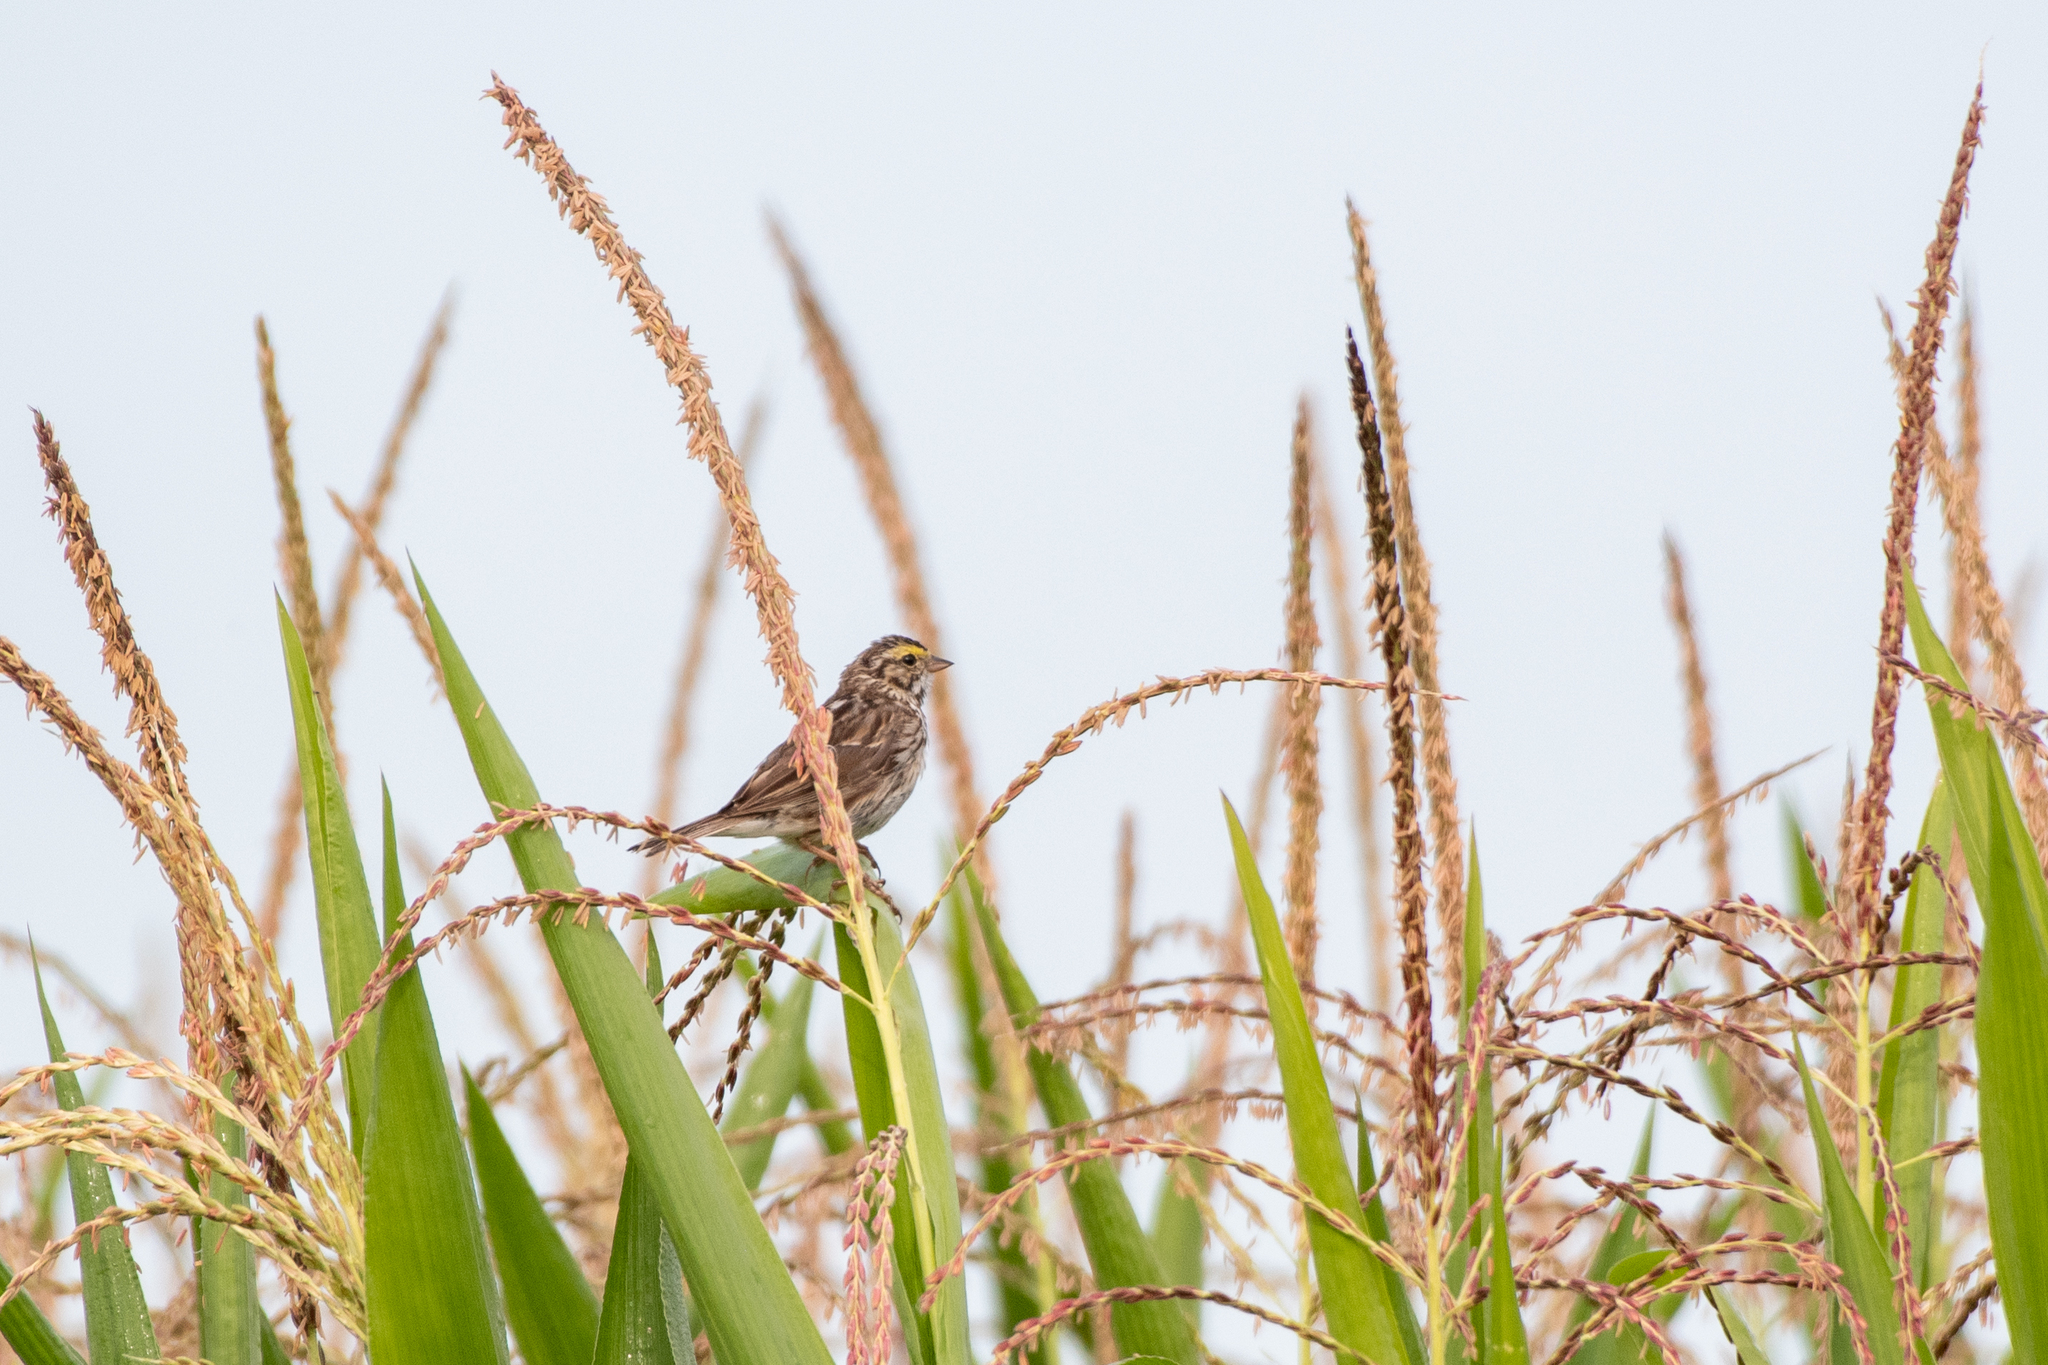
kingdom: Animalia
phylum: Chordata
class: Aves
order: Passeriformes
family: Passerellidae
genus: Passerculus
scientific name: Passerculus sandwichensis
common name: Savannah sparrow
